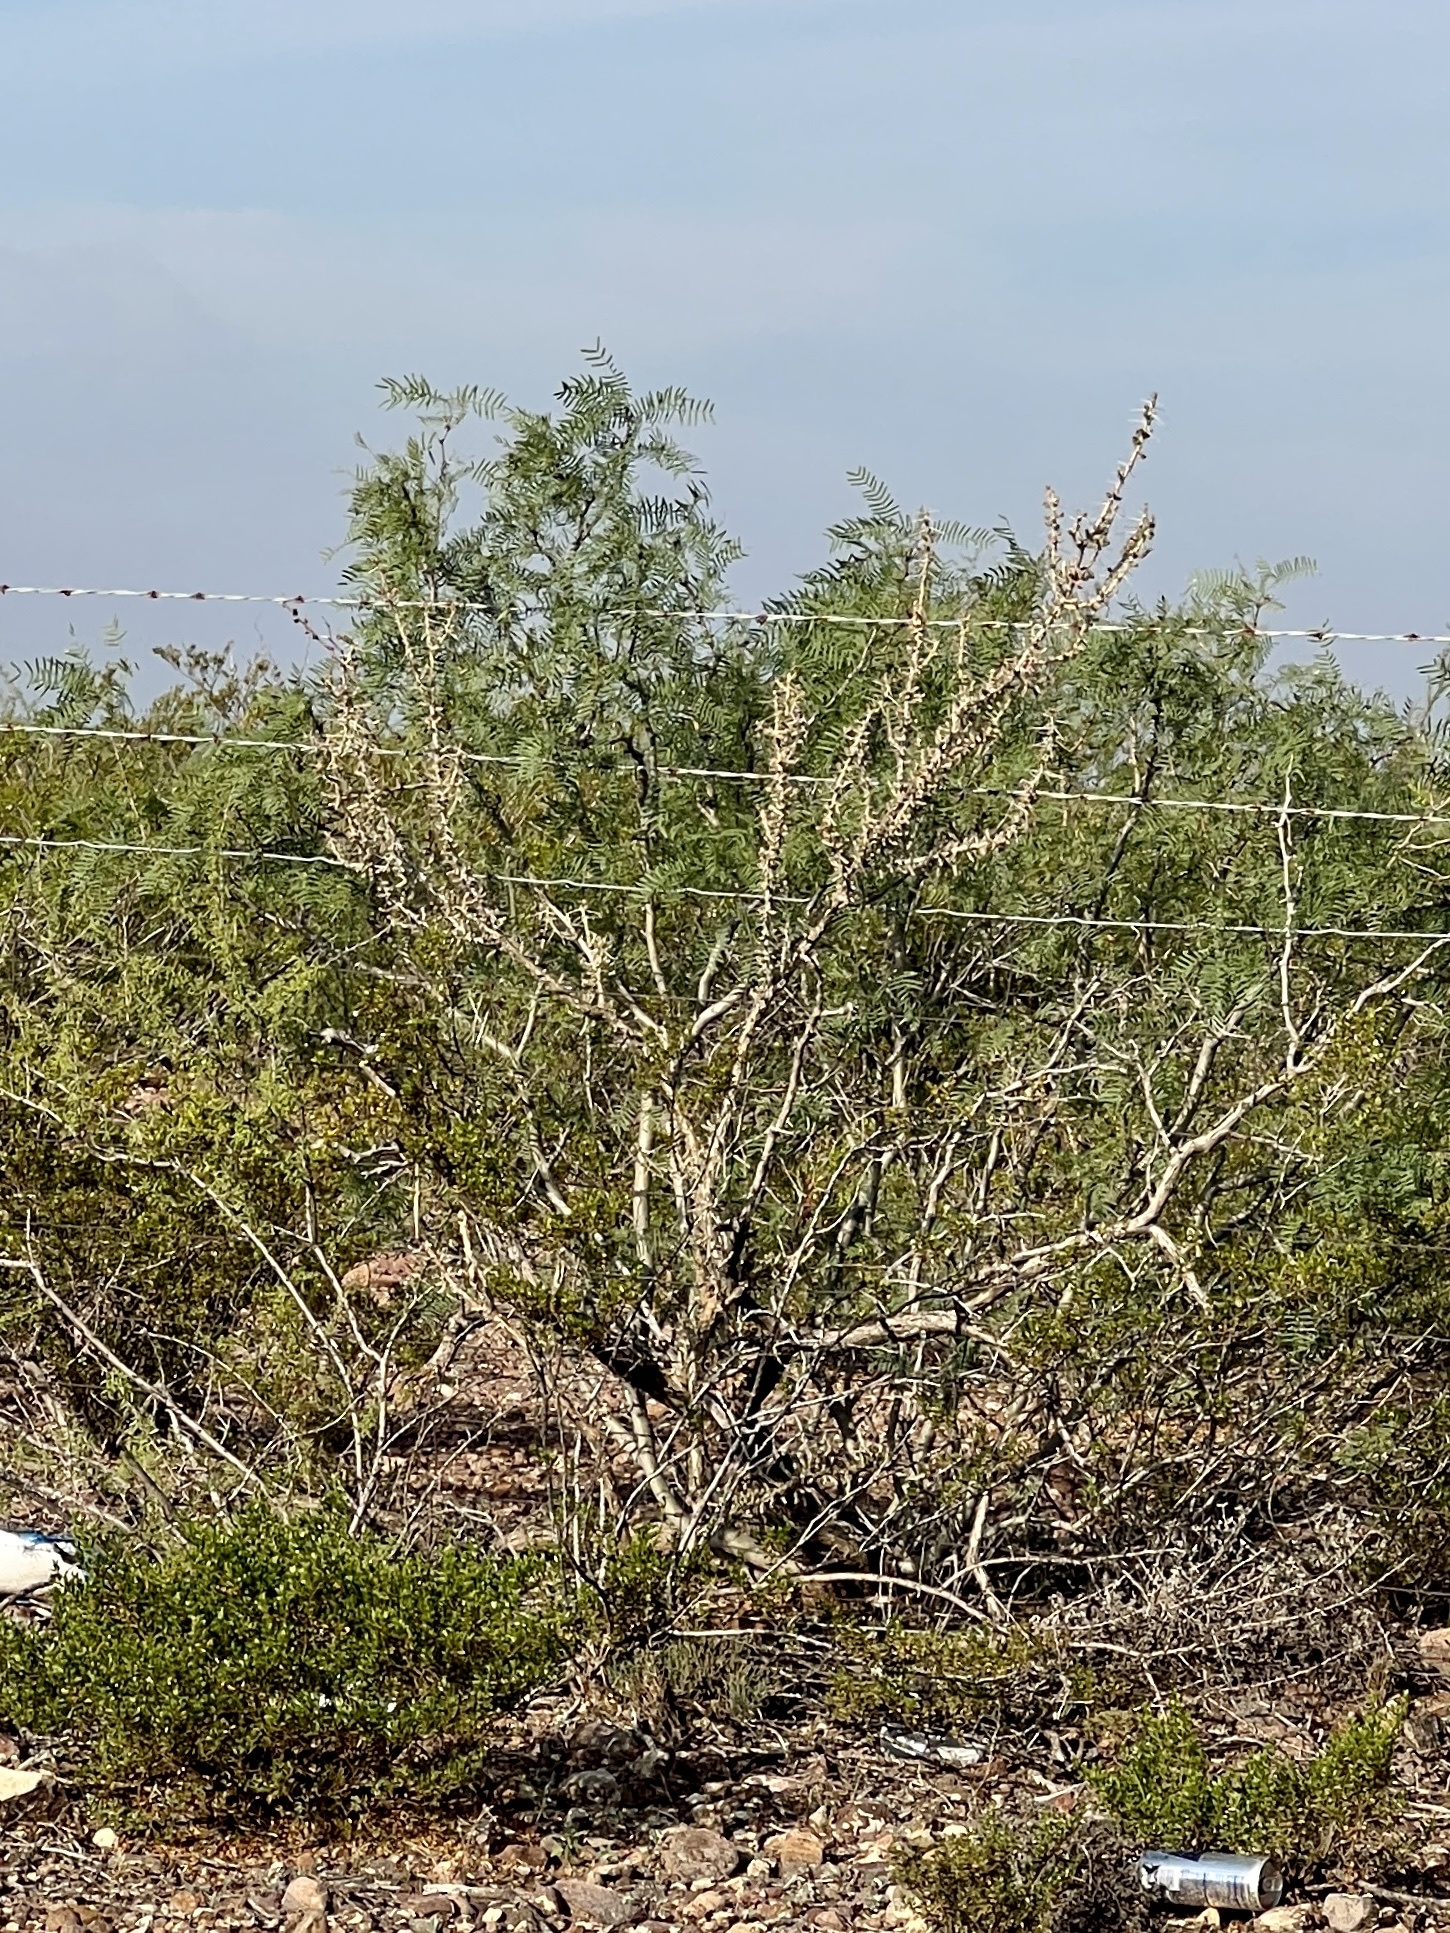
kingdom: Plantae
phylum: Tracheophyta
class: Magnoliopsida
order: Caryophyllales
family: Cactaceae
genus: Cylindropuntia
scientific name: Cylindropuntia leptocaulis
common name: Christmas cactus
